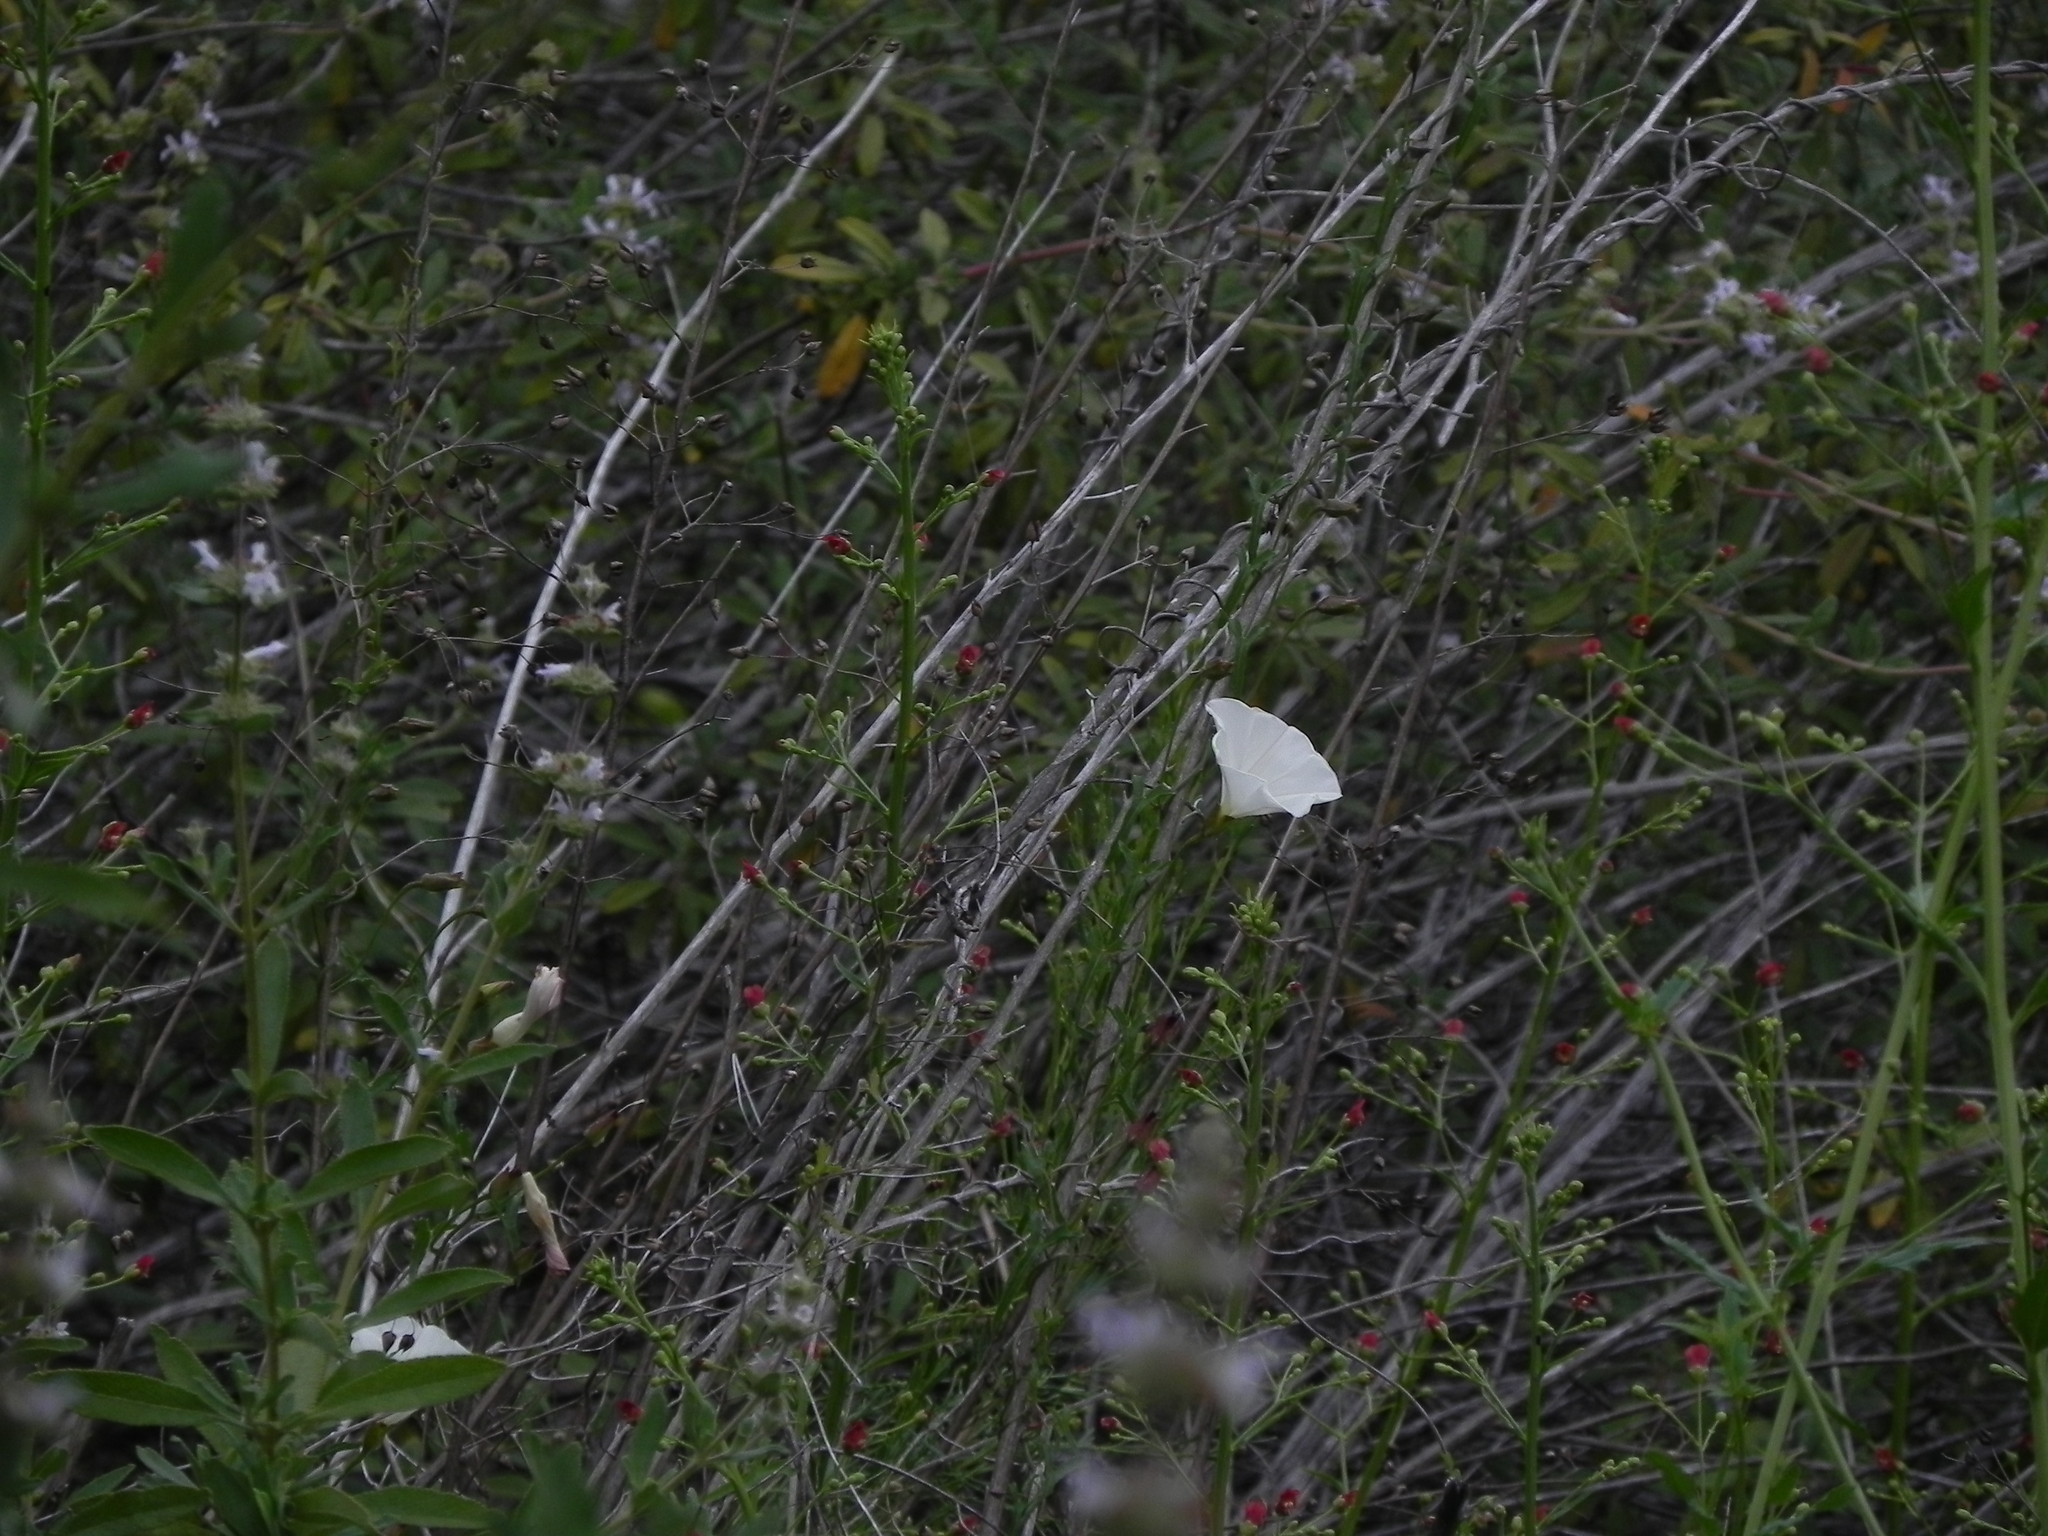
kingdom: Plantae
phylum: Tracheophyta
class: Magnoliopsida
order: Solanales
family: Convolvulaceae
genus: Calystegia
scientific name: Calystegia macrostegia
